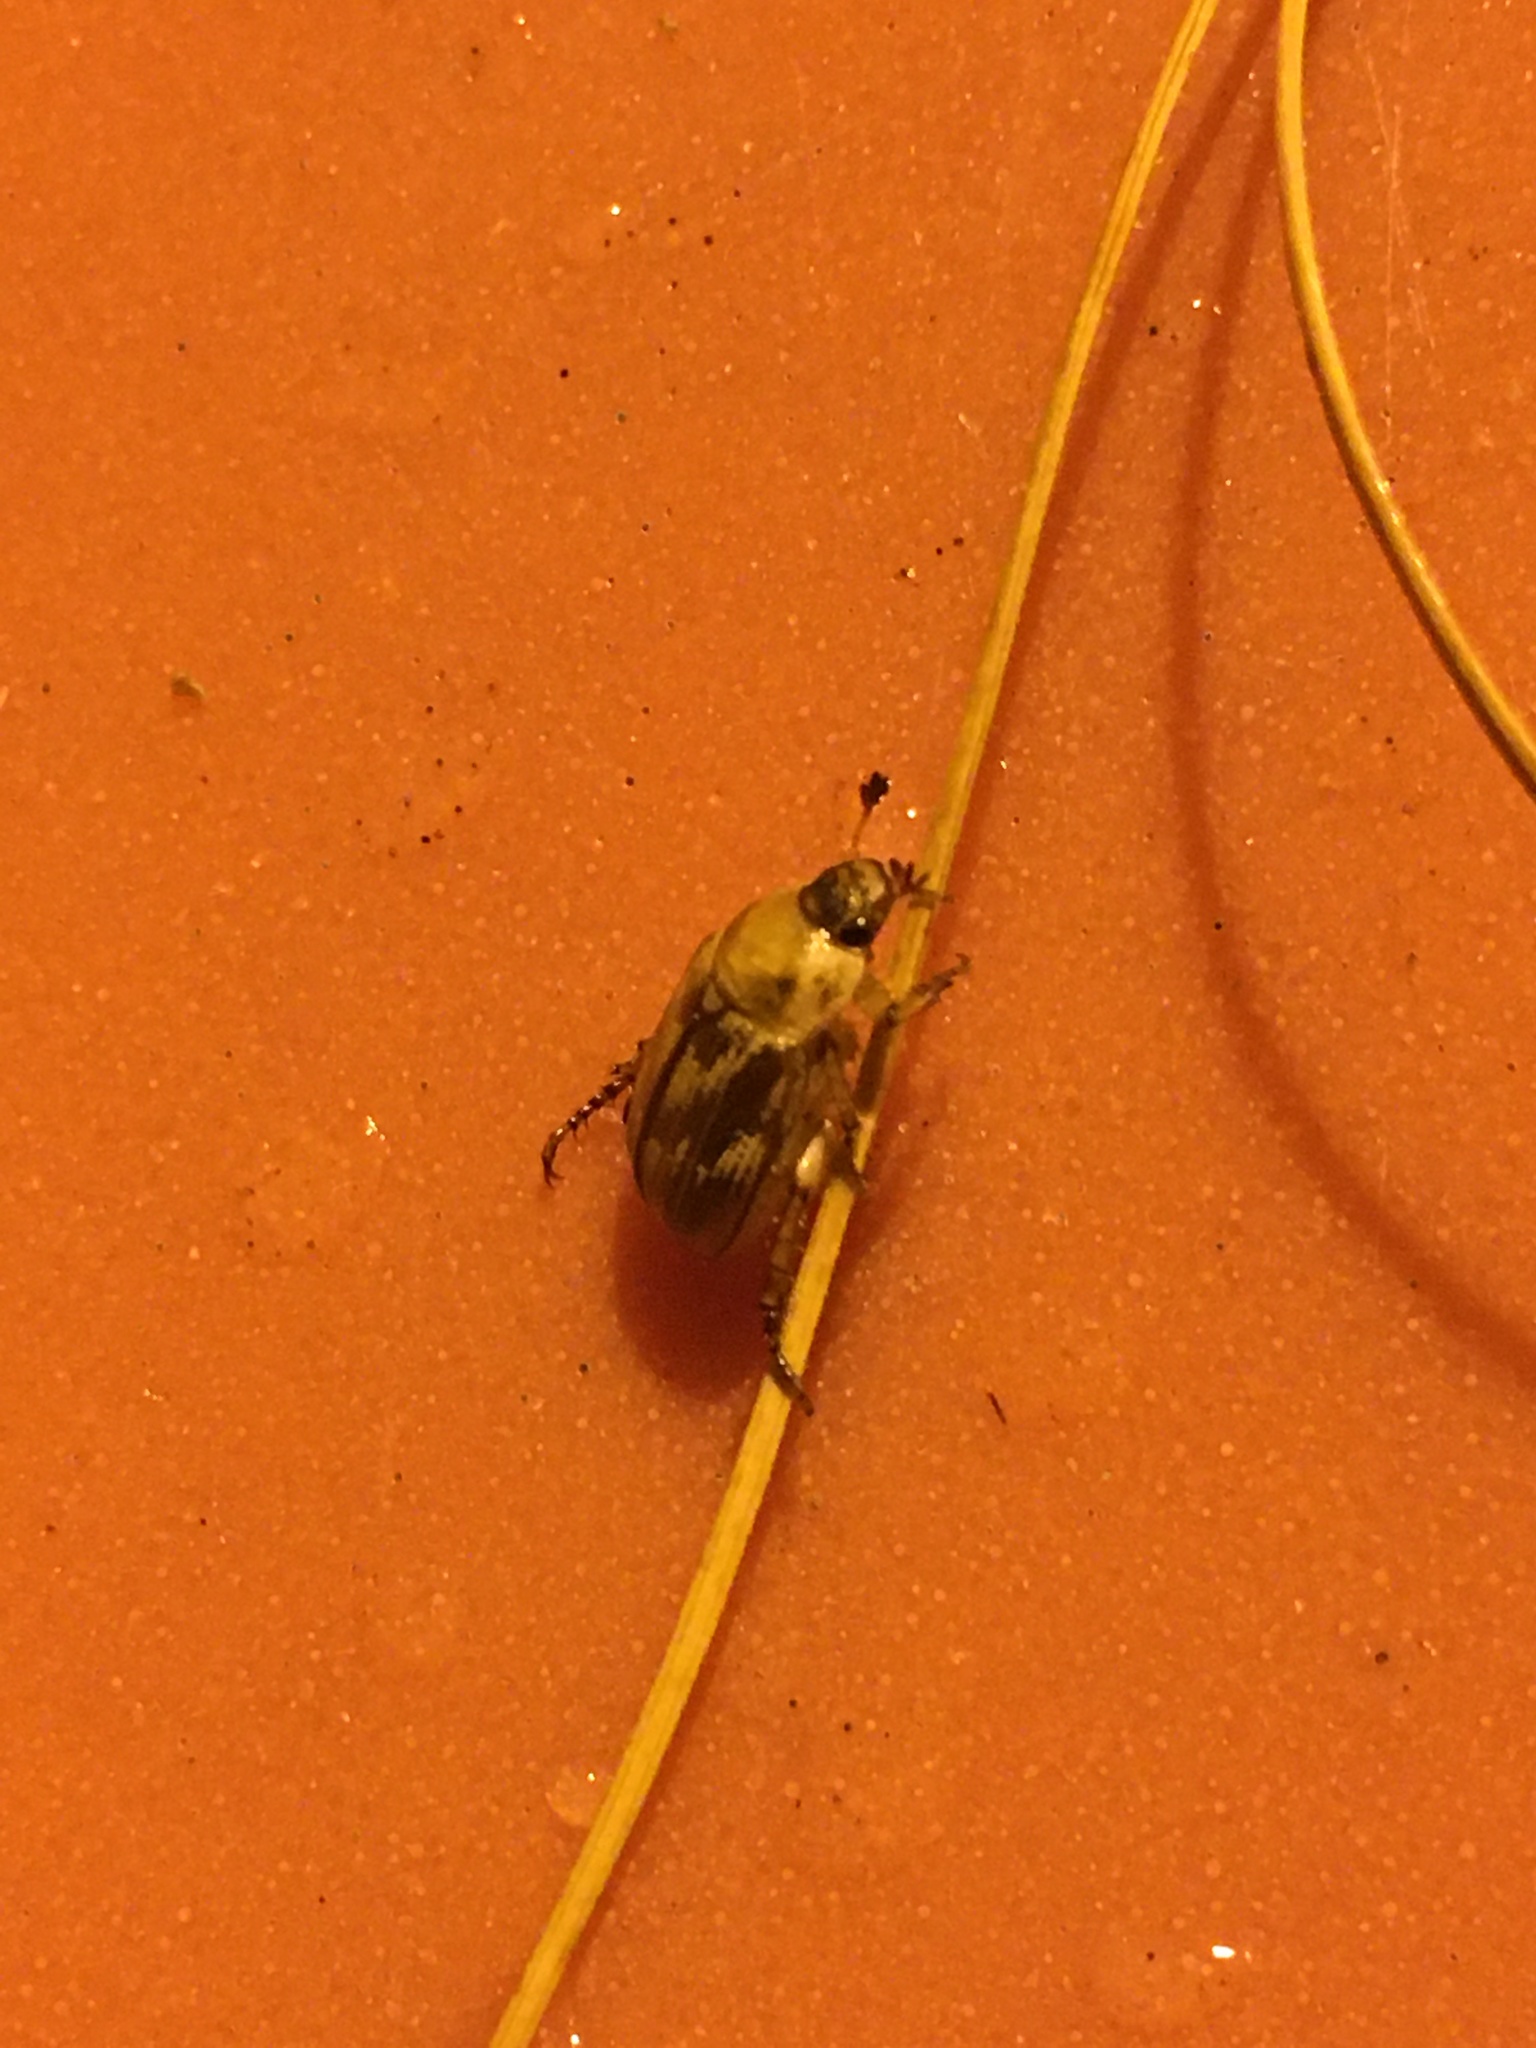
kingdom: Animalia
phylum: Arthropoda
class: Insecta
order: Coleoptera
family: Scarabaeidae
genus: Exomala
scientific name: Exomala orientalis
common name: Oriental beetle
